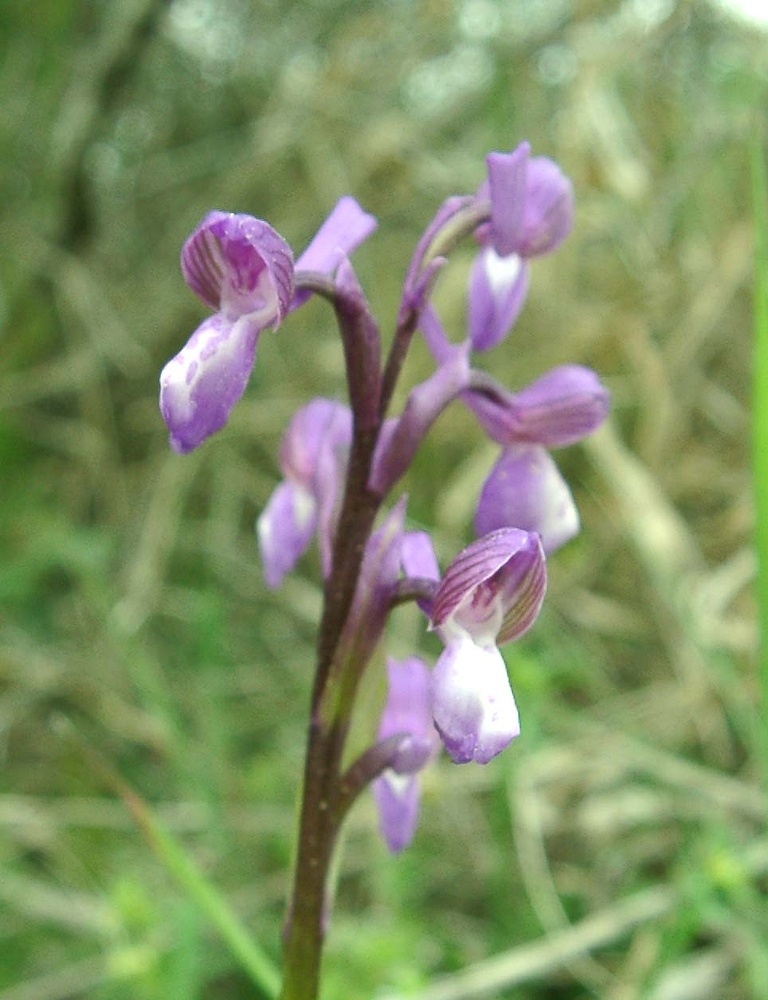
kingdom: Plantae
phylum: Tracheophyta
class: Liliopsida
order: Asparagales
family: Orchidaceae
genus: Anacamptis
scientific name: Anacamptis morio
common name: Green-winged orchid
